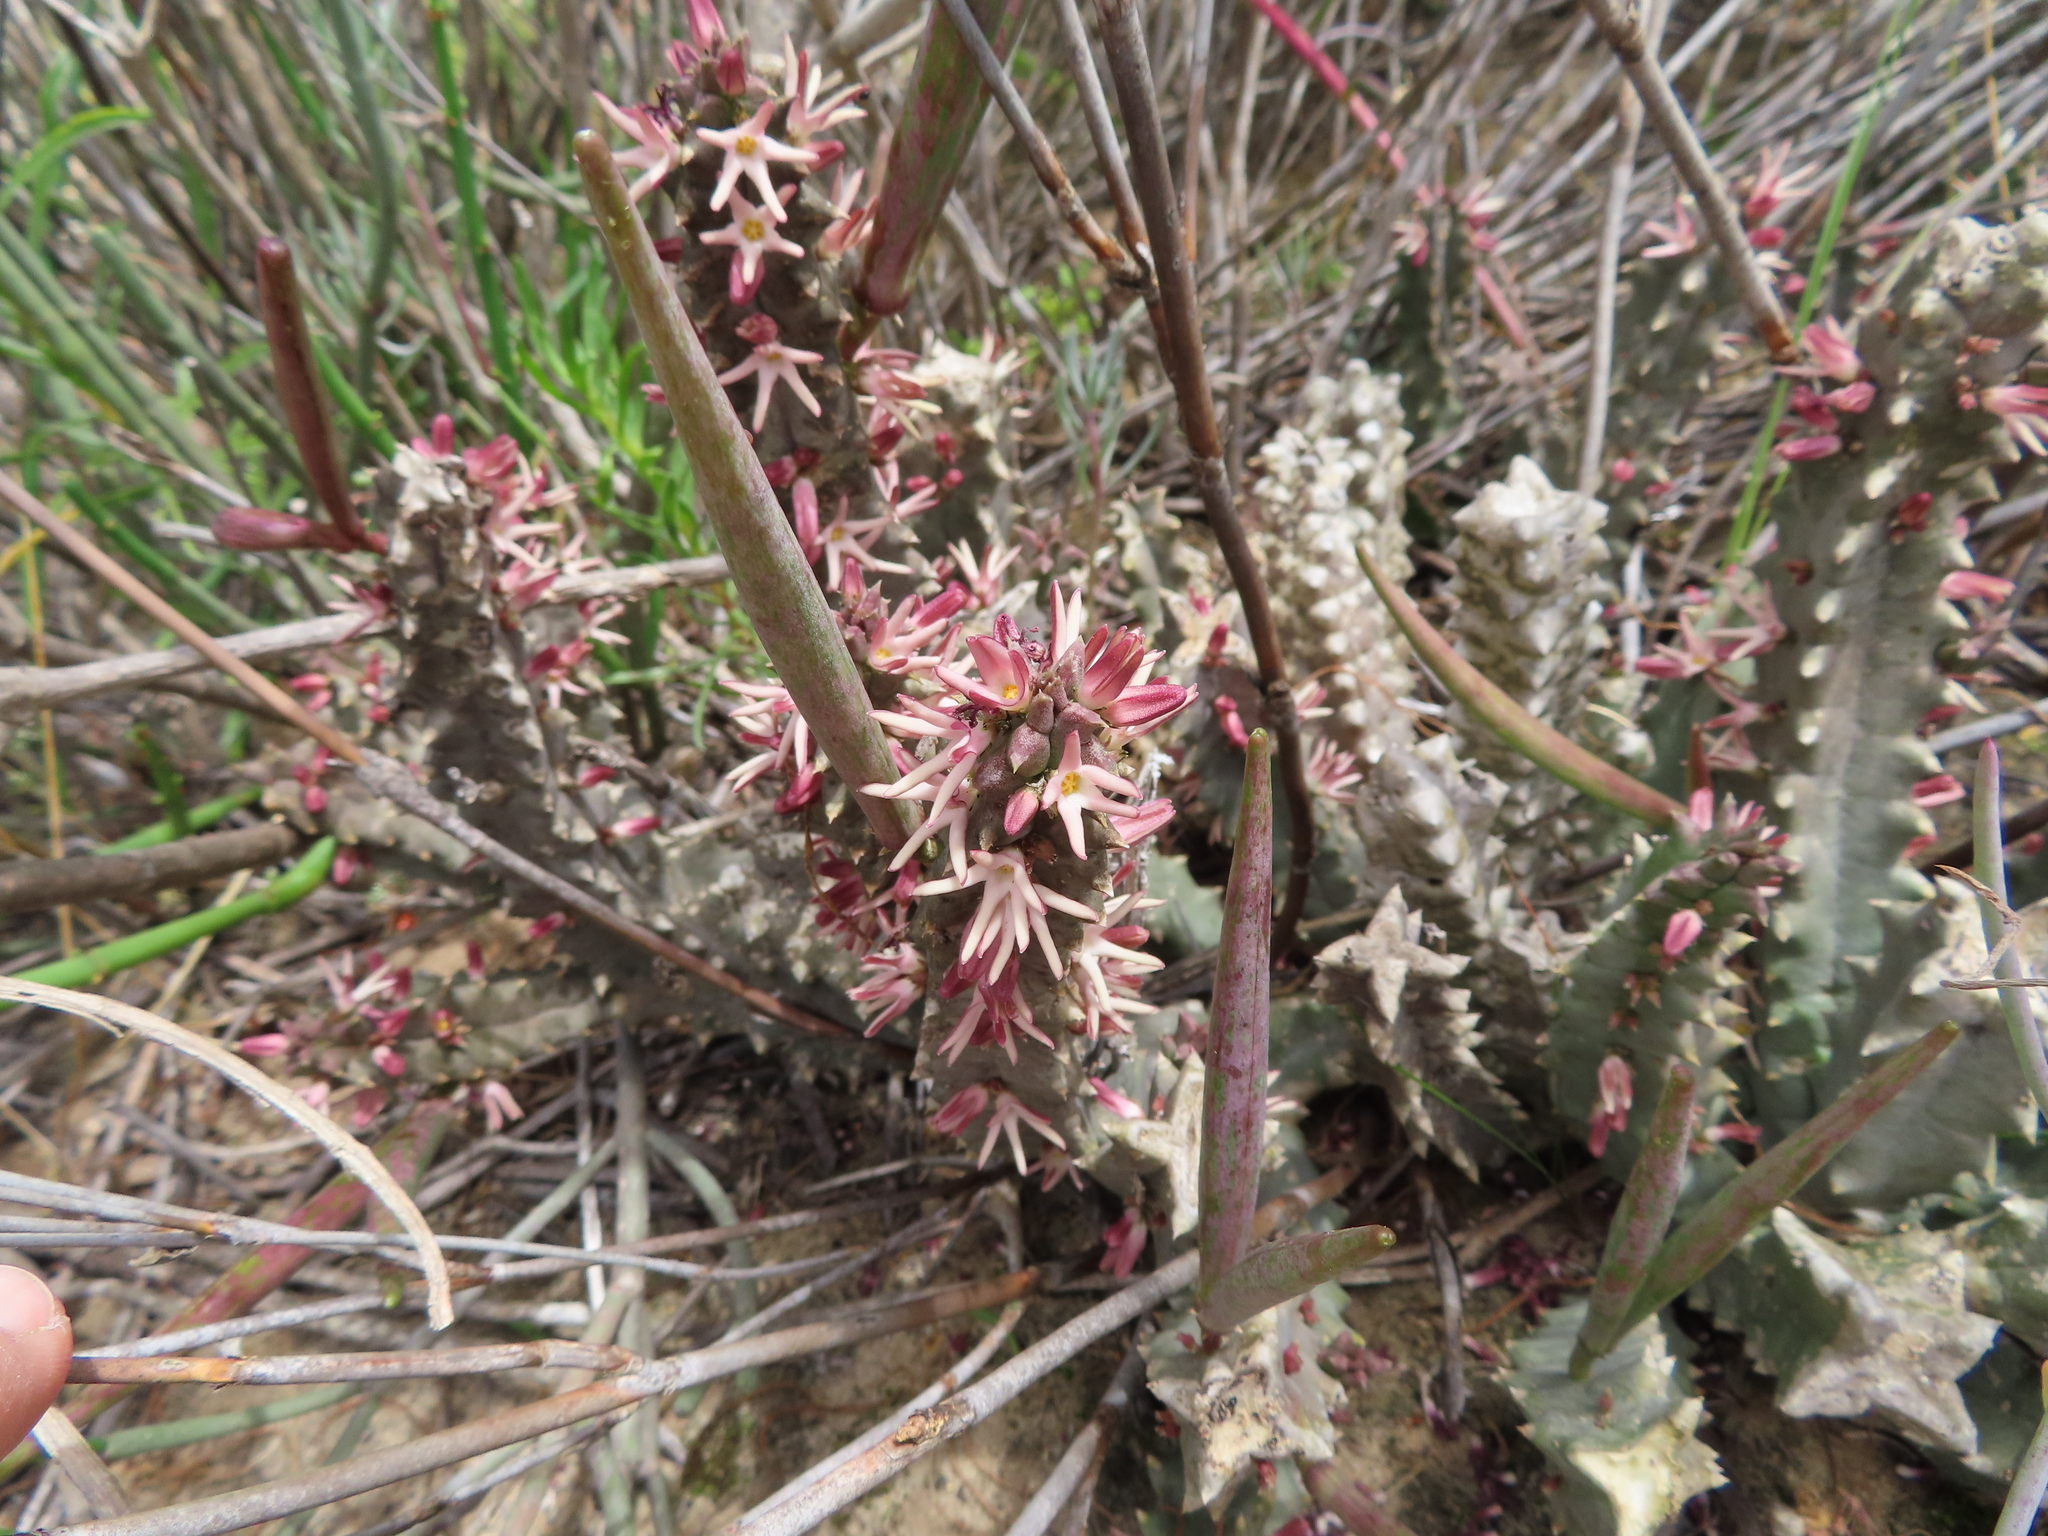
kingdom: Plantae
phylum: Tracheophyta
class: Magnoliopsida
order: Gentianales
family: Apocynaceae
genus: Ceropegia
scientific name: Ceropegia incarnata
